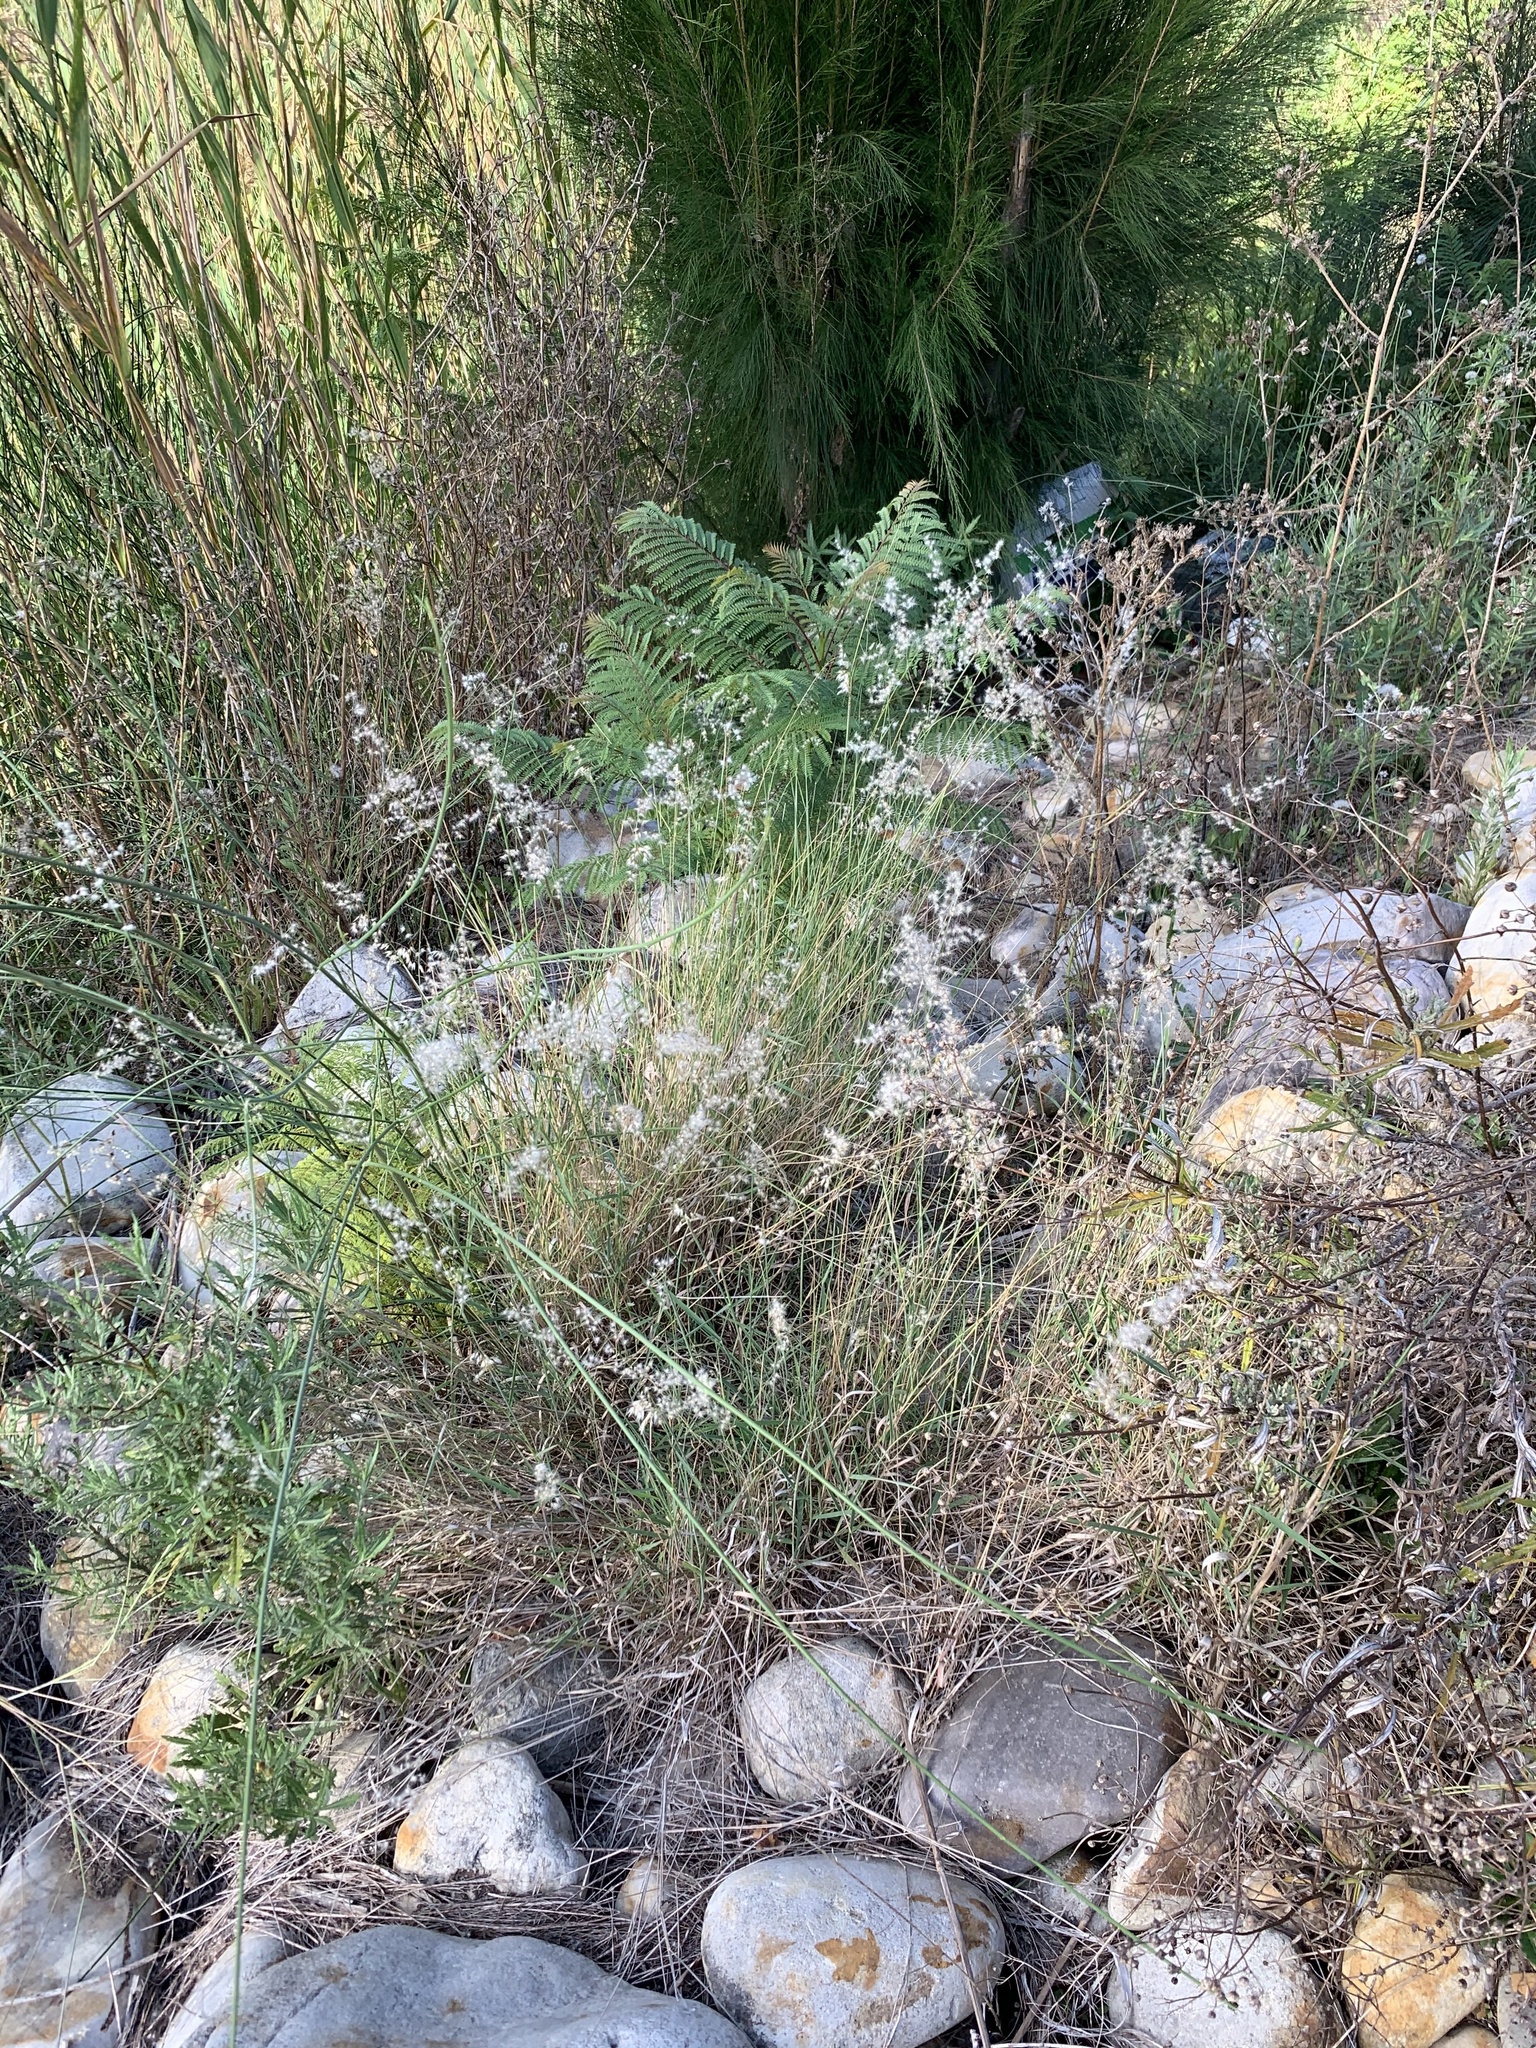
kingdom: Plantae
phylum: Tracheophyta
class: Liliopsida
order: Poales
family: Poaceae
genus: Melinis
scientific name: Melinis repens
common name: Rose natal grass
